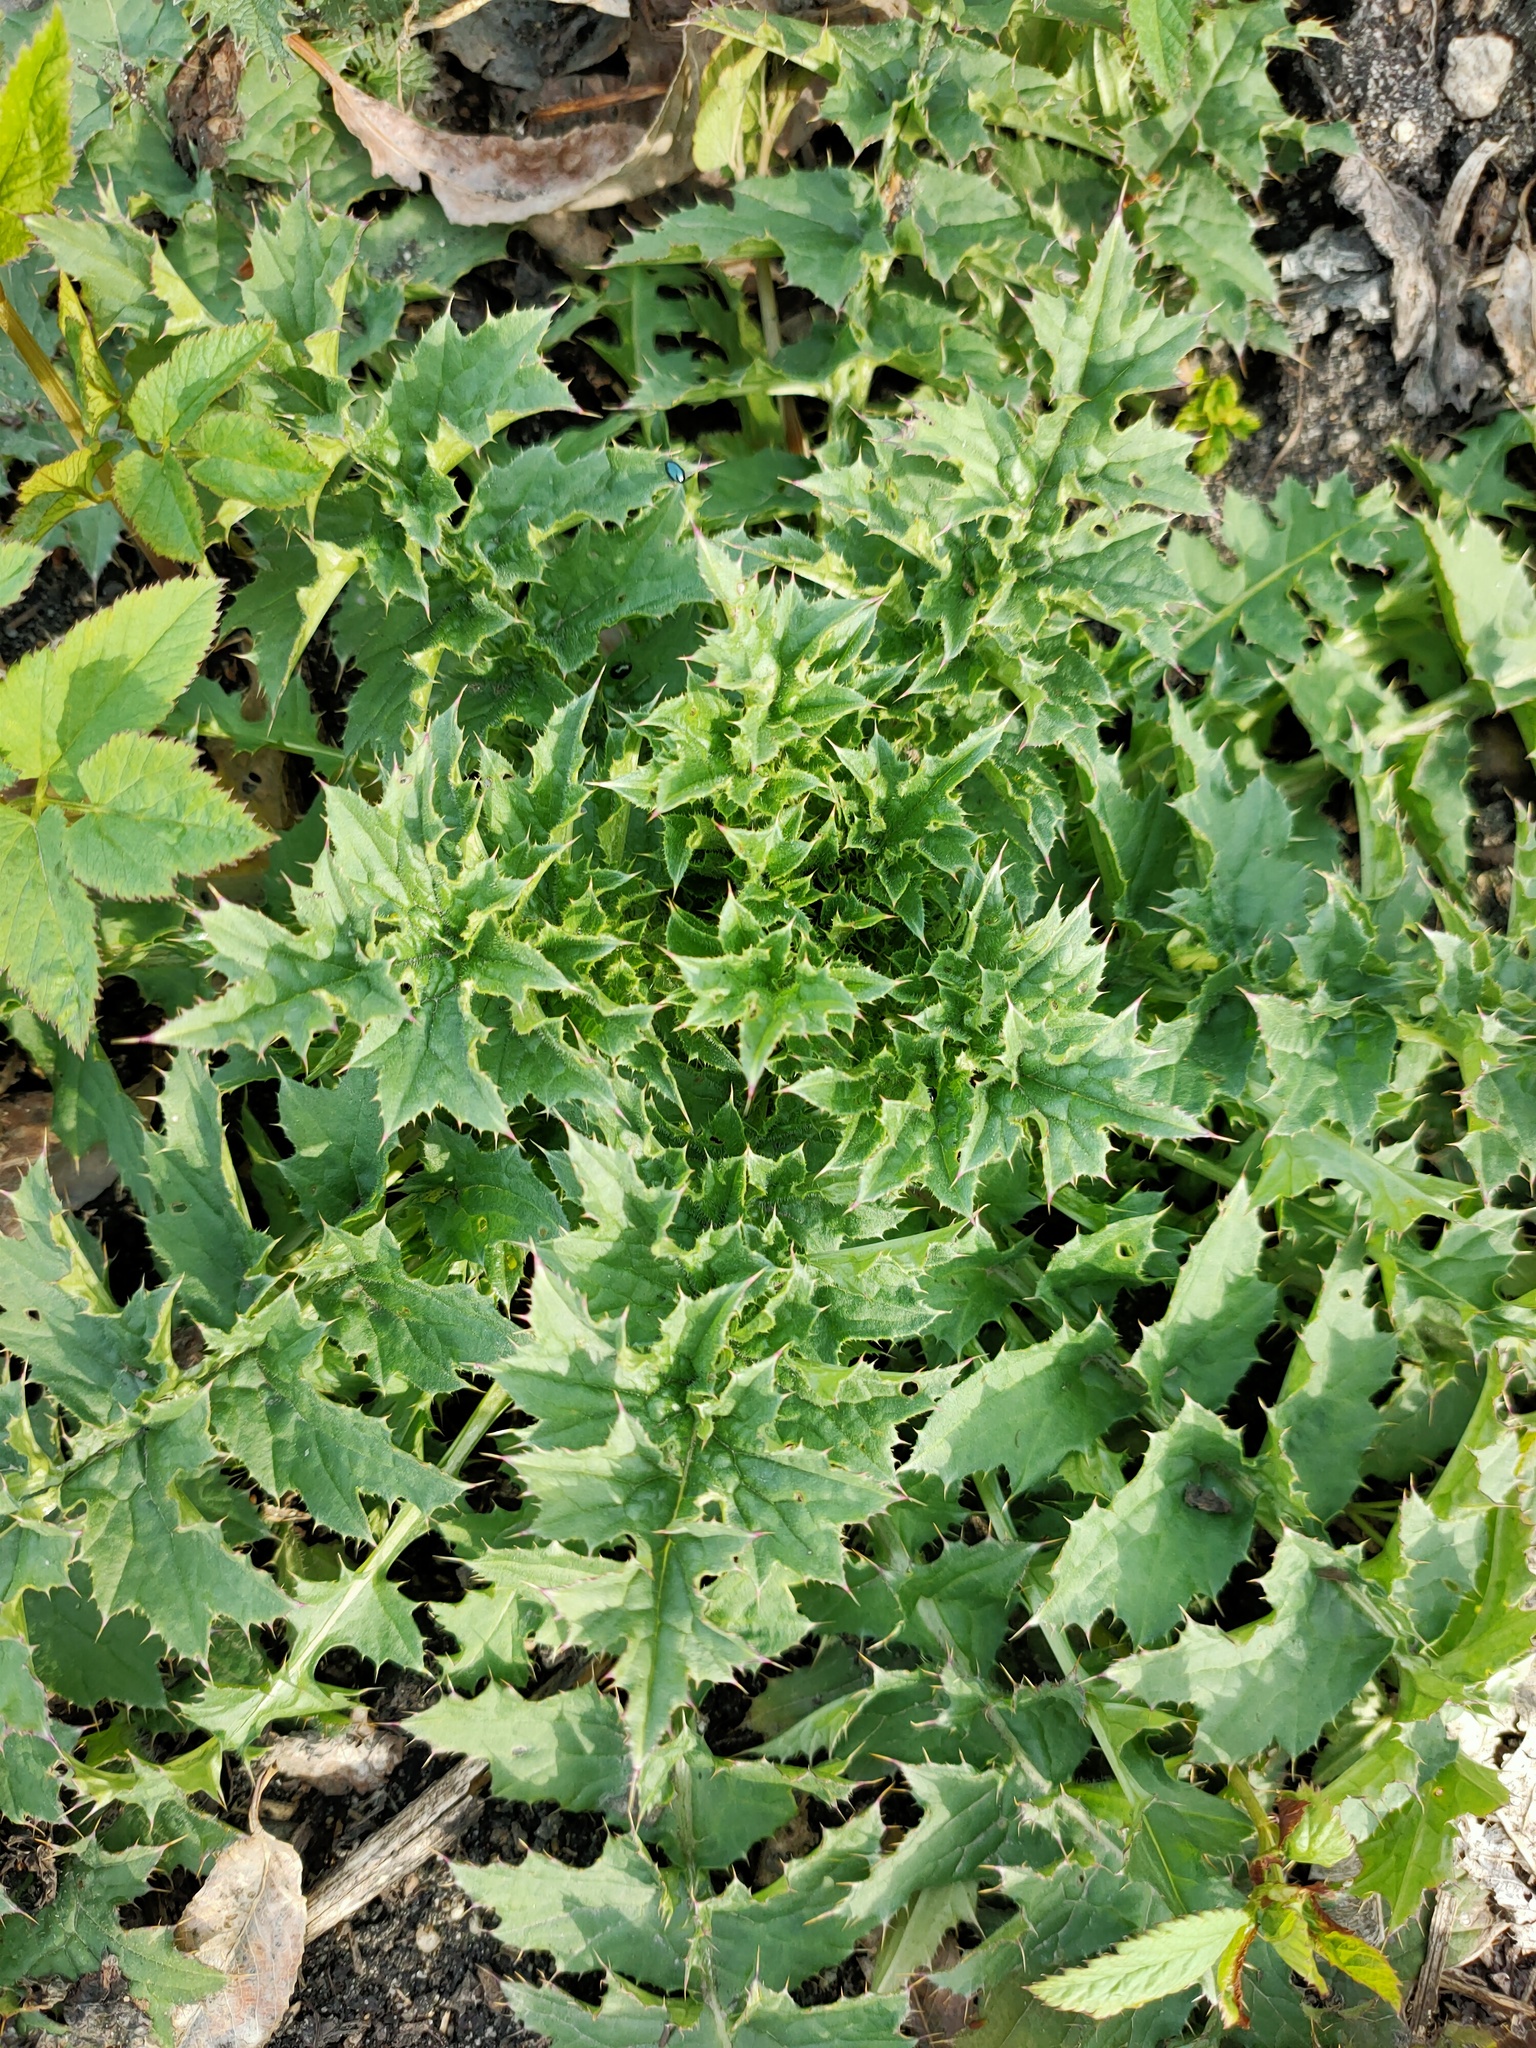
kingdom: Plantae
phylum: Tracheophyta
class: Magnoliopsida
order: Asterales
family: Asteraceae
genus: Carduus
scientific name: Carduus acanthoides
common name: Plumeless thistle
